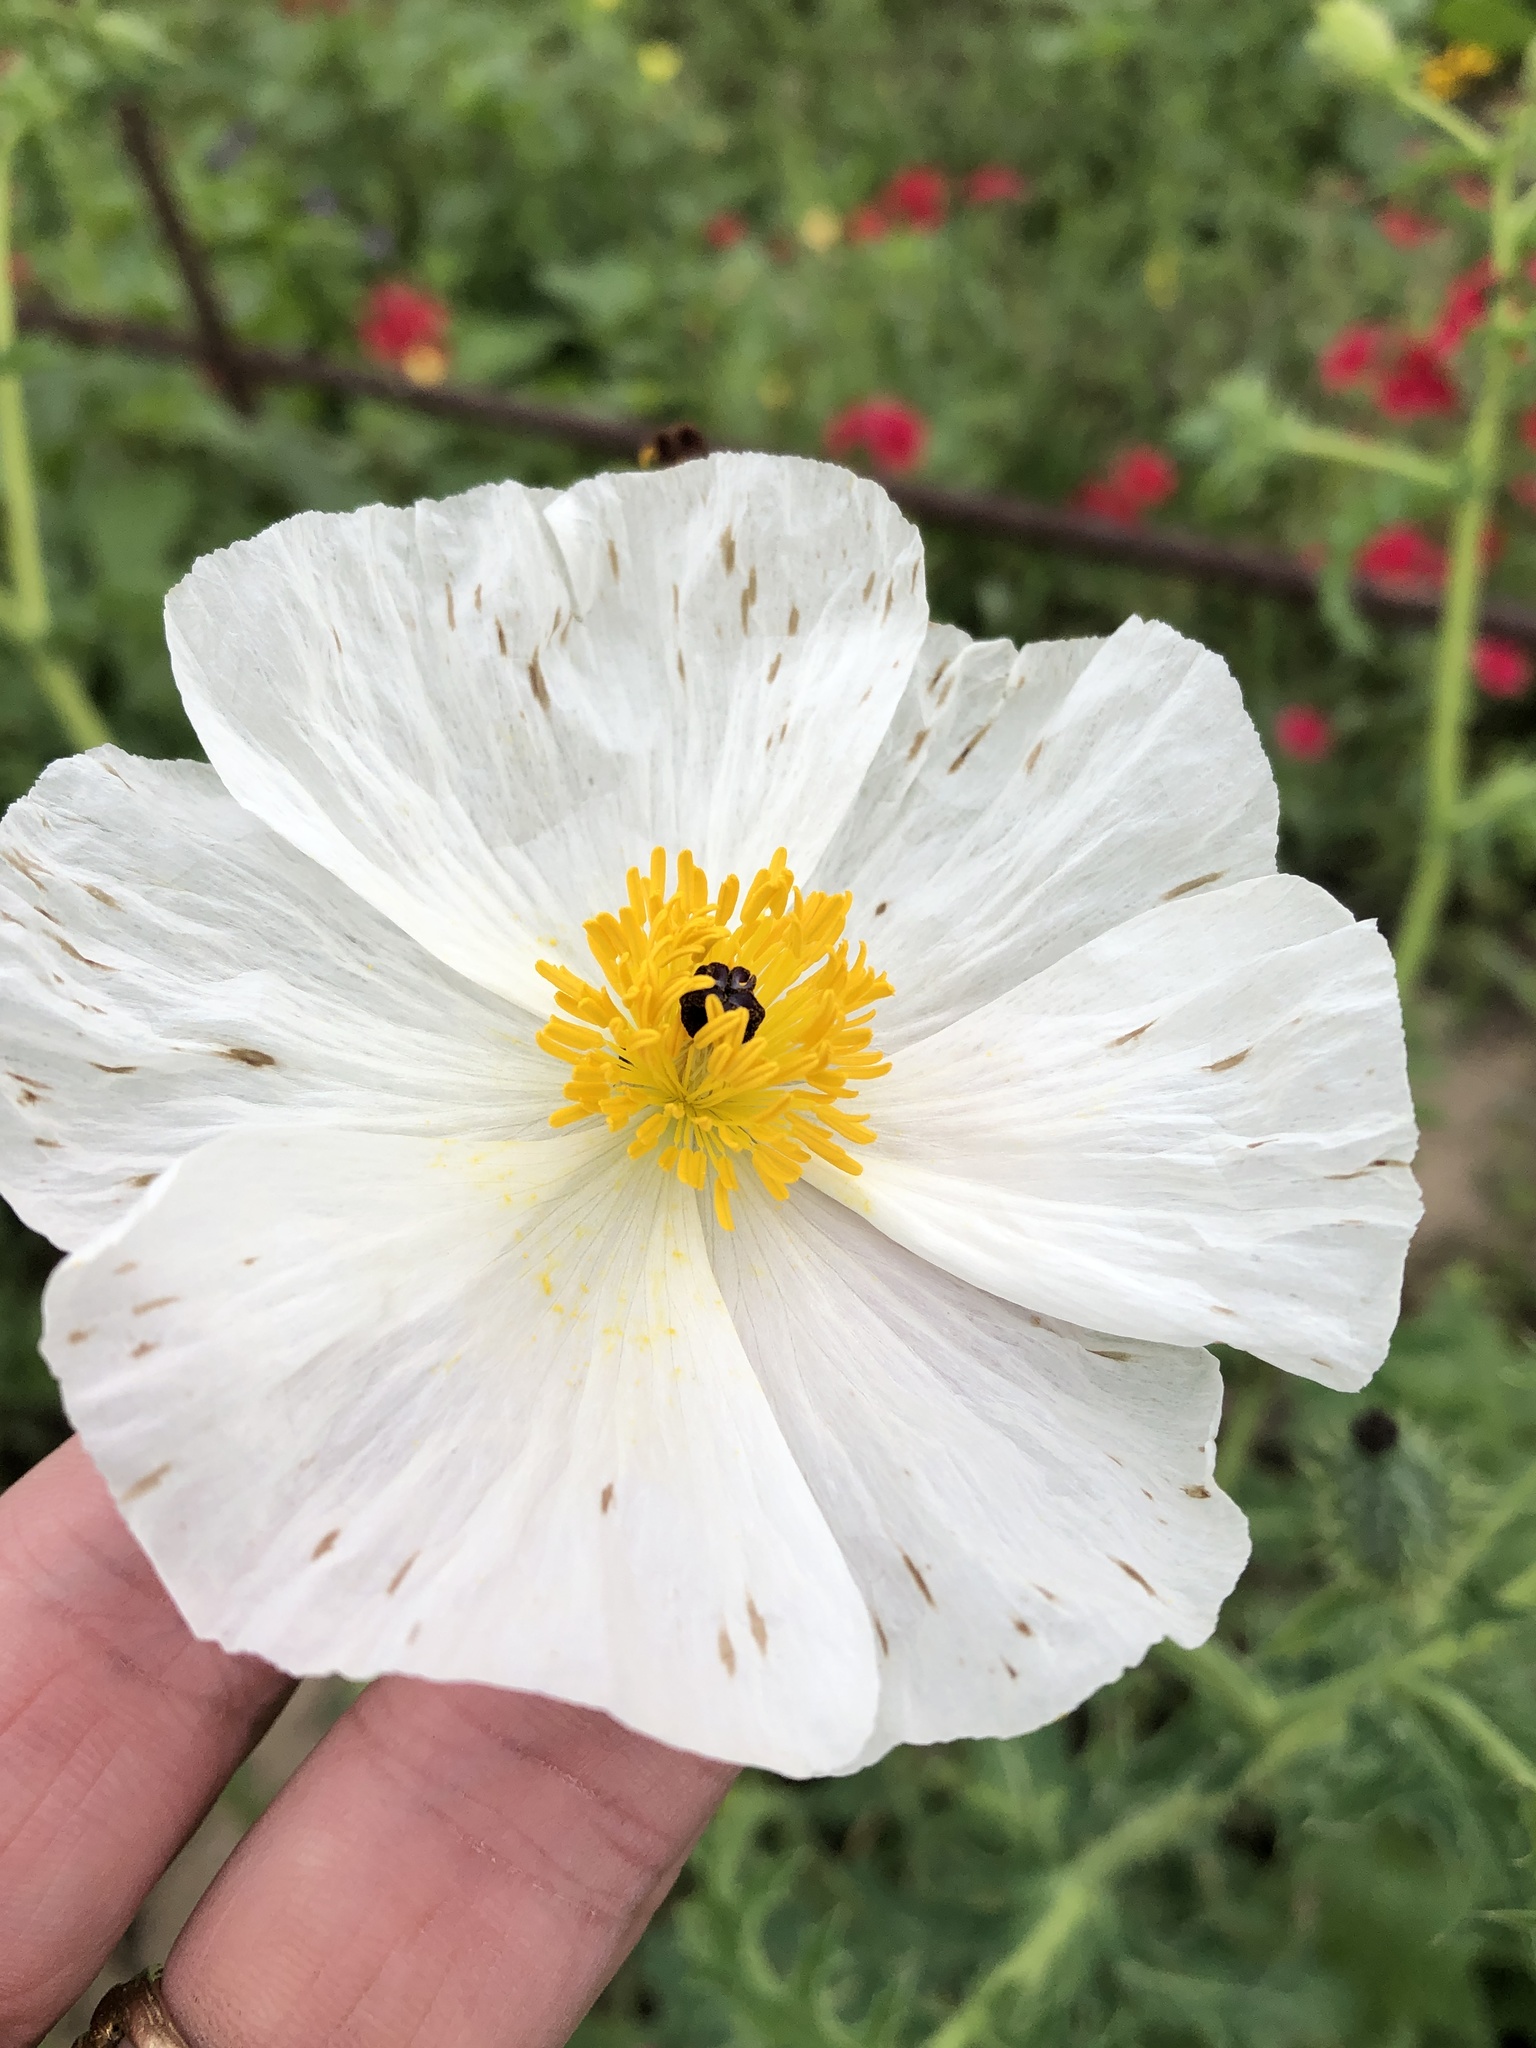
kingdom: Plantae
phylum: Tracheophyta
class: Magnoliopsida
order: Ranunculales
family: Papaveraceae
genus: Argemone
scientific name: Argemone albiflora
